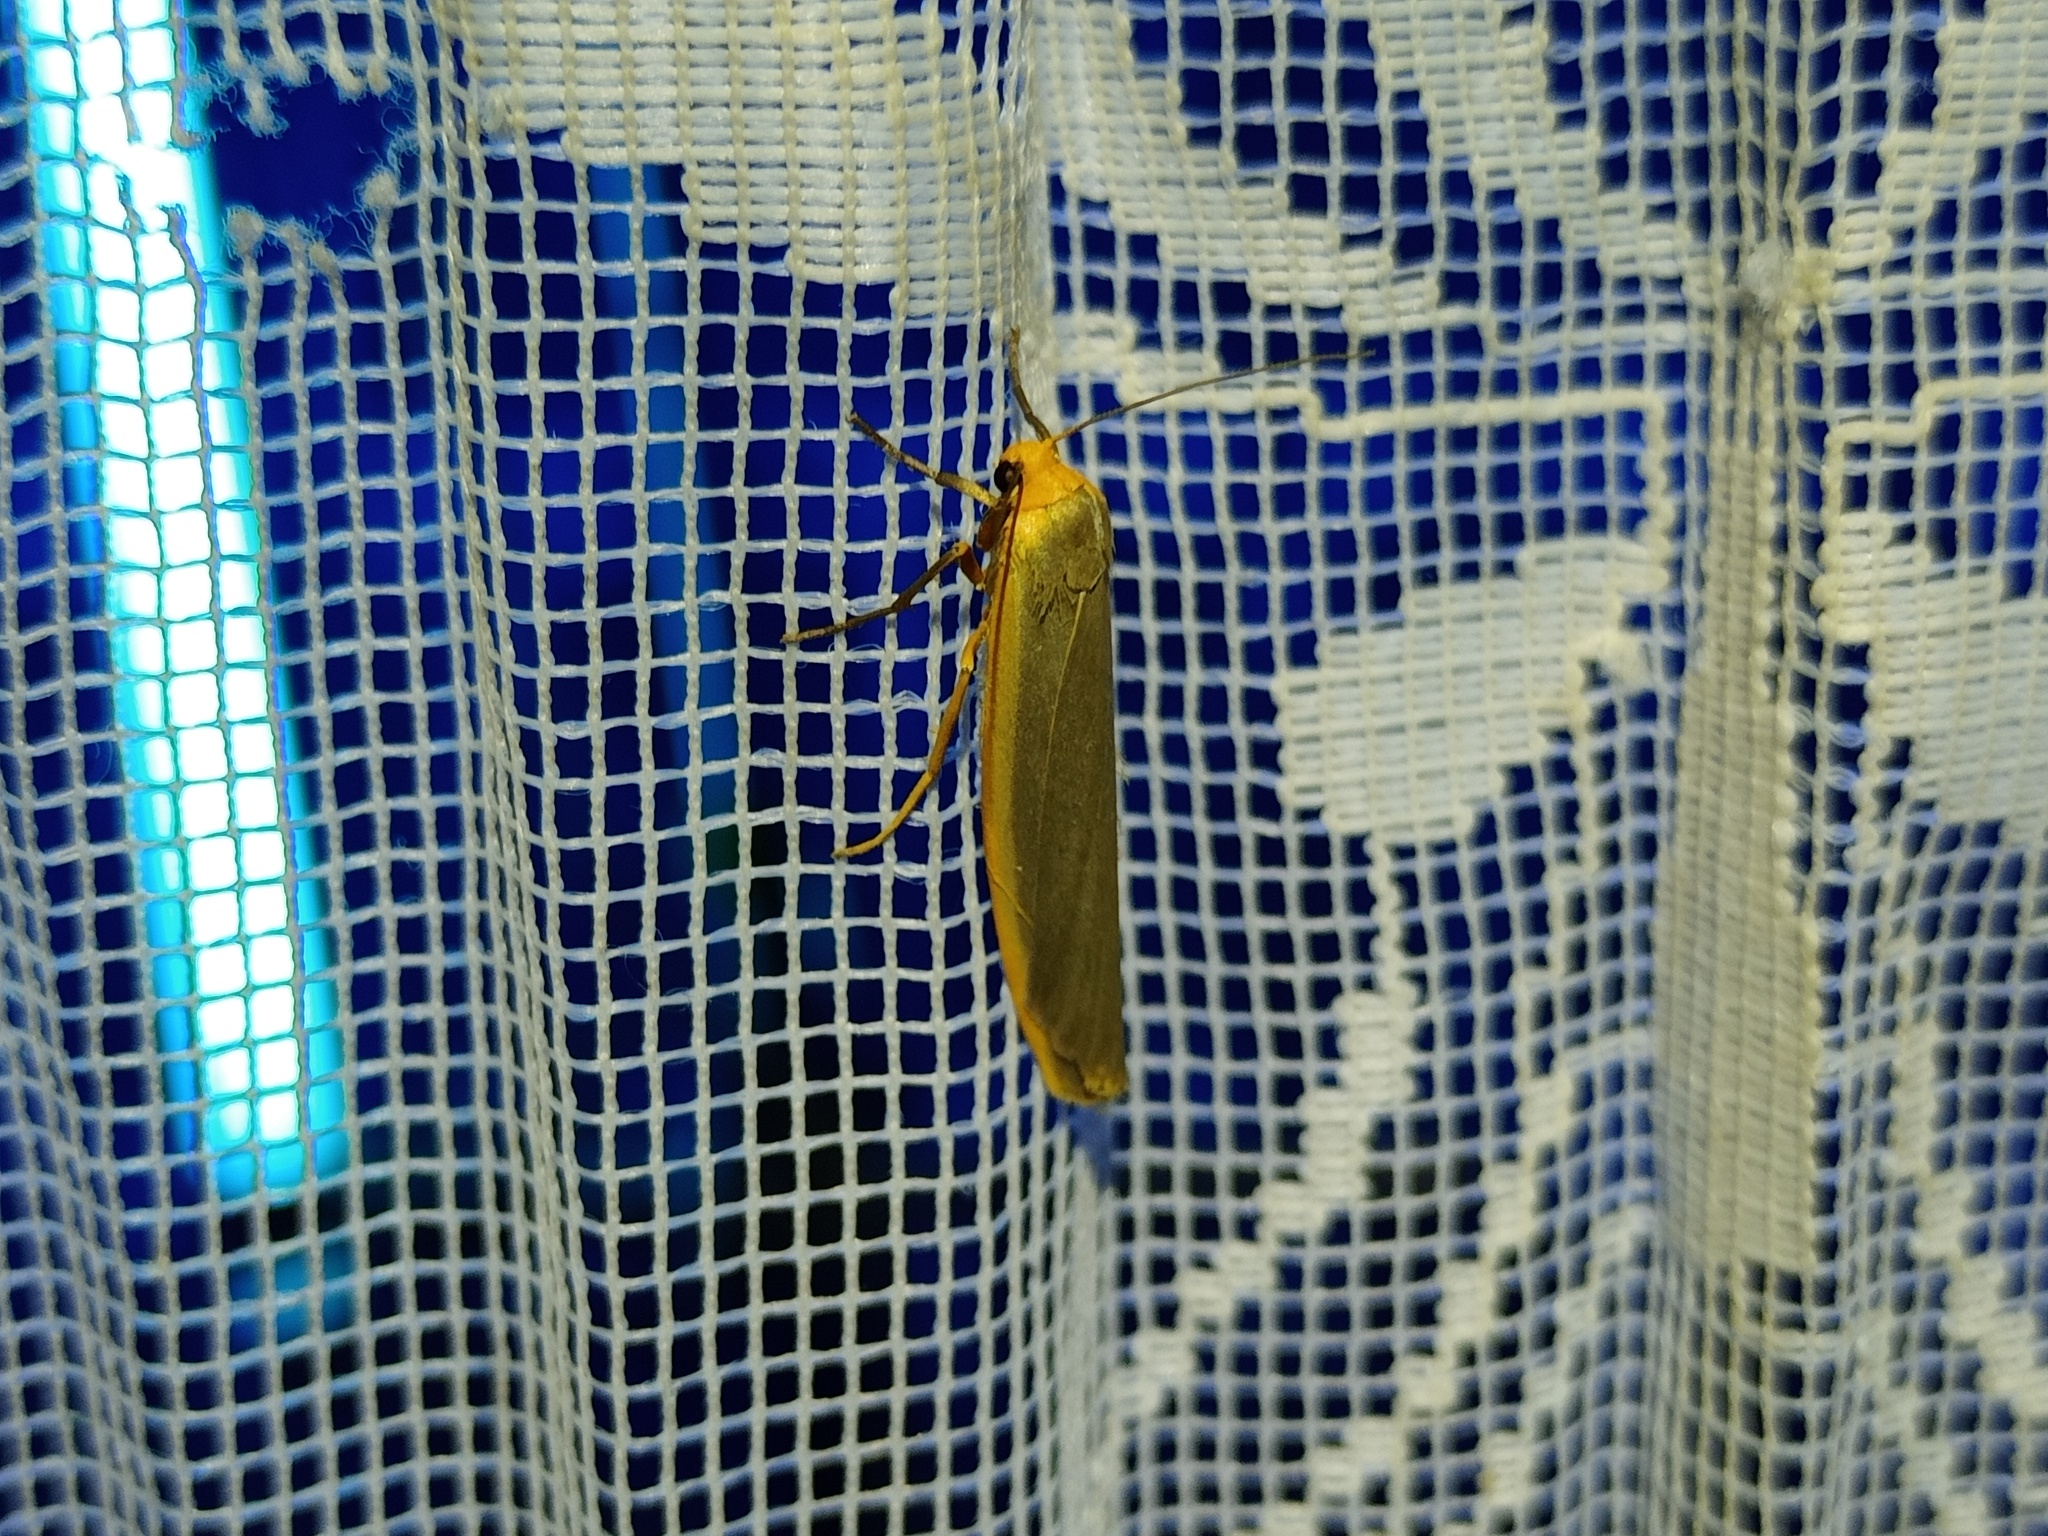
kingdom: Animalia
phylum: Arthropoda
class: Insecta
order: Lepidoptera
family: Erebidae
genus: Manulea
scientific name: Manulea complana
